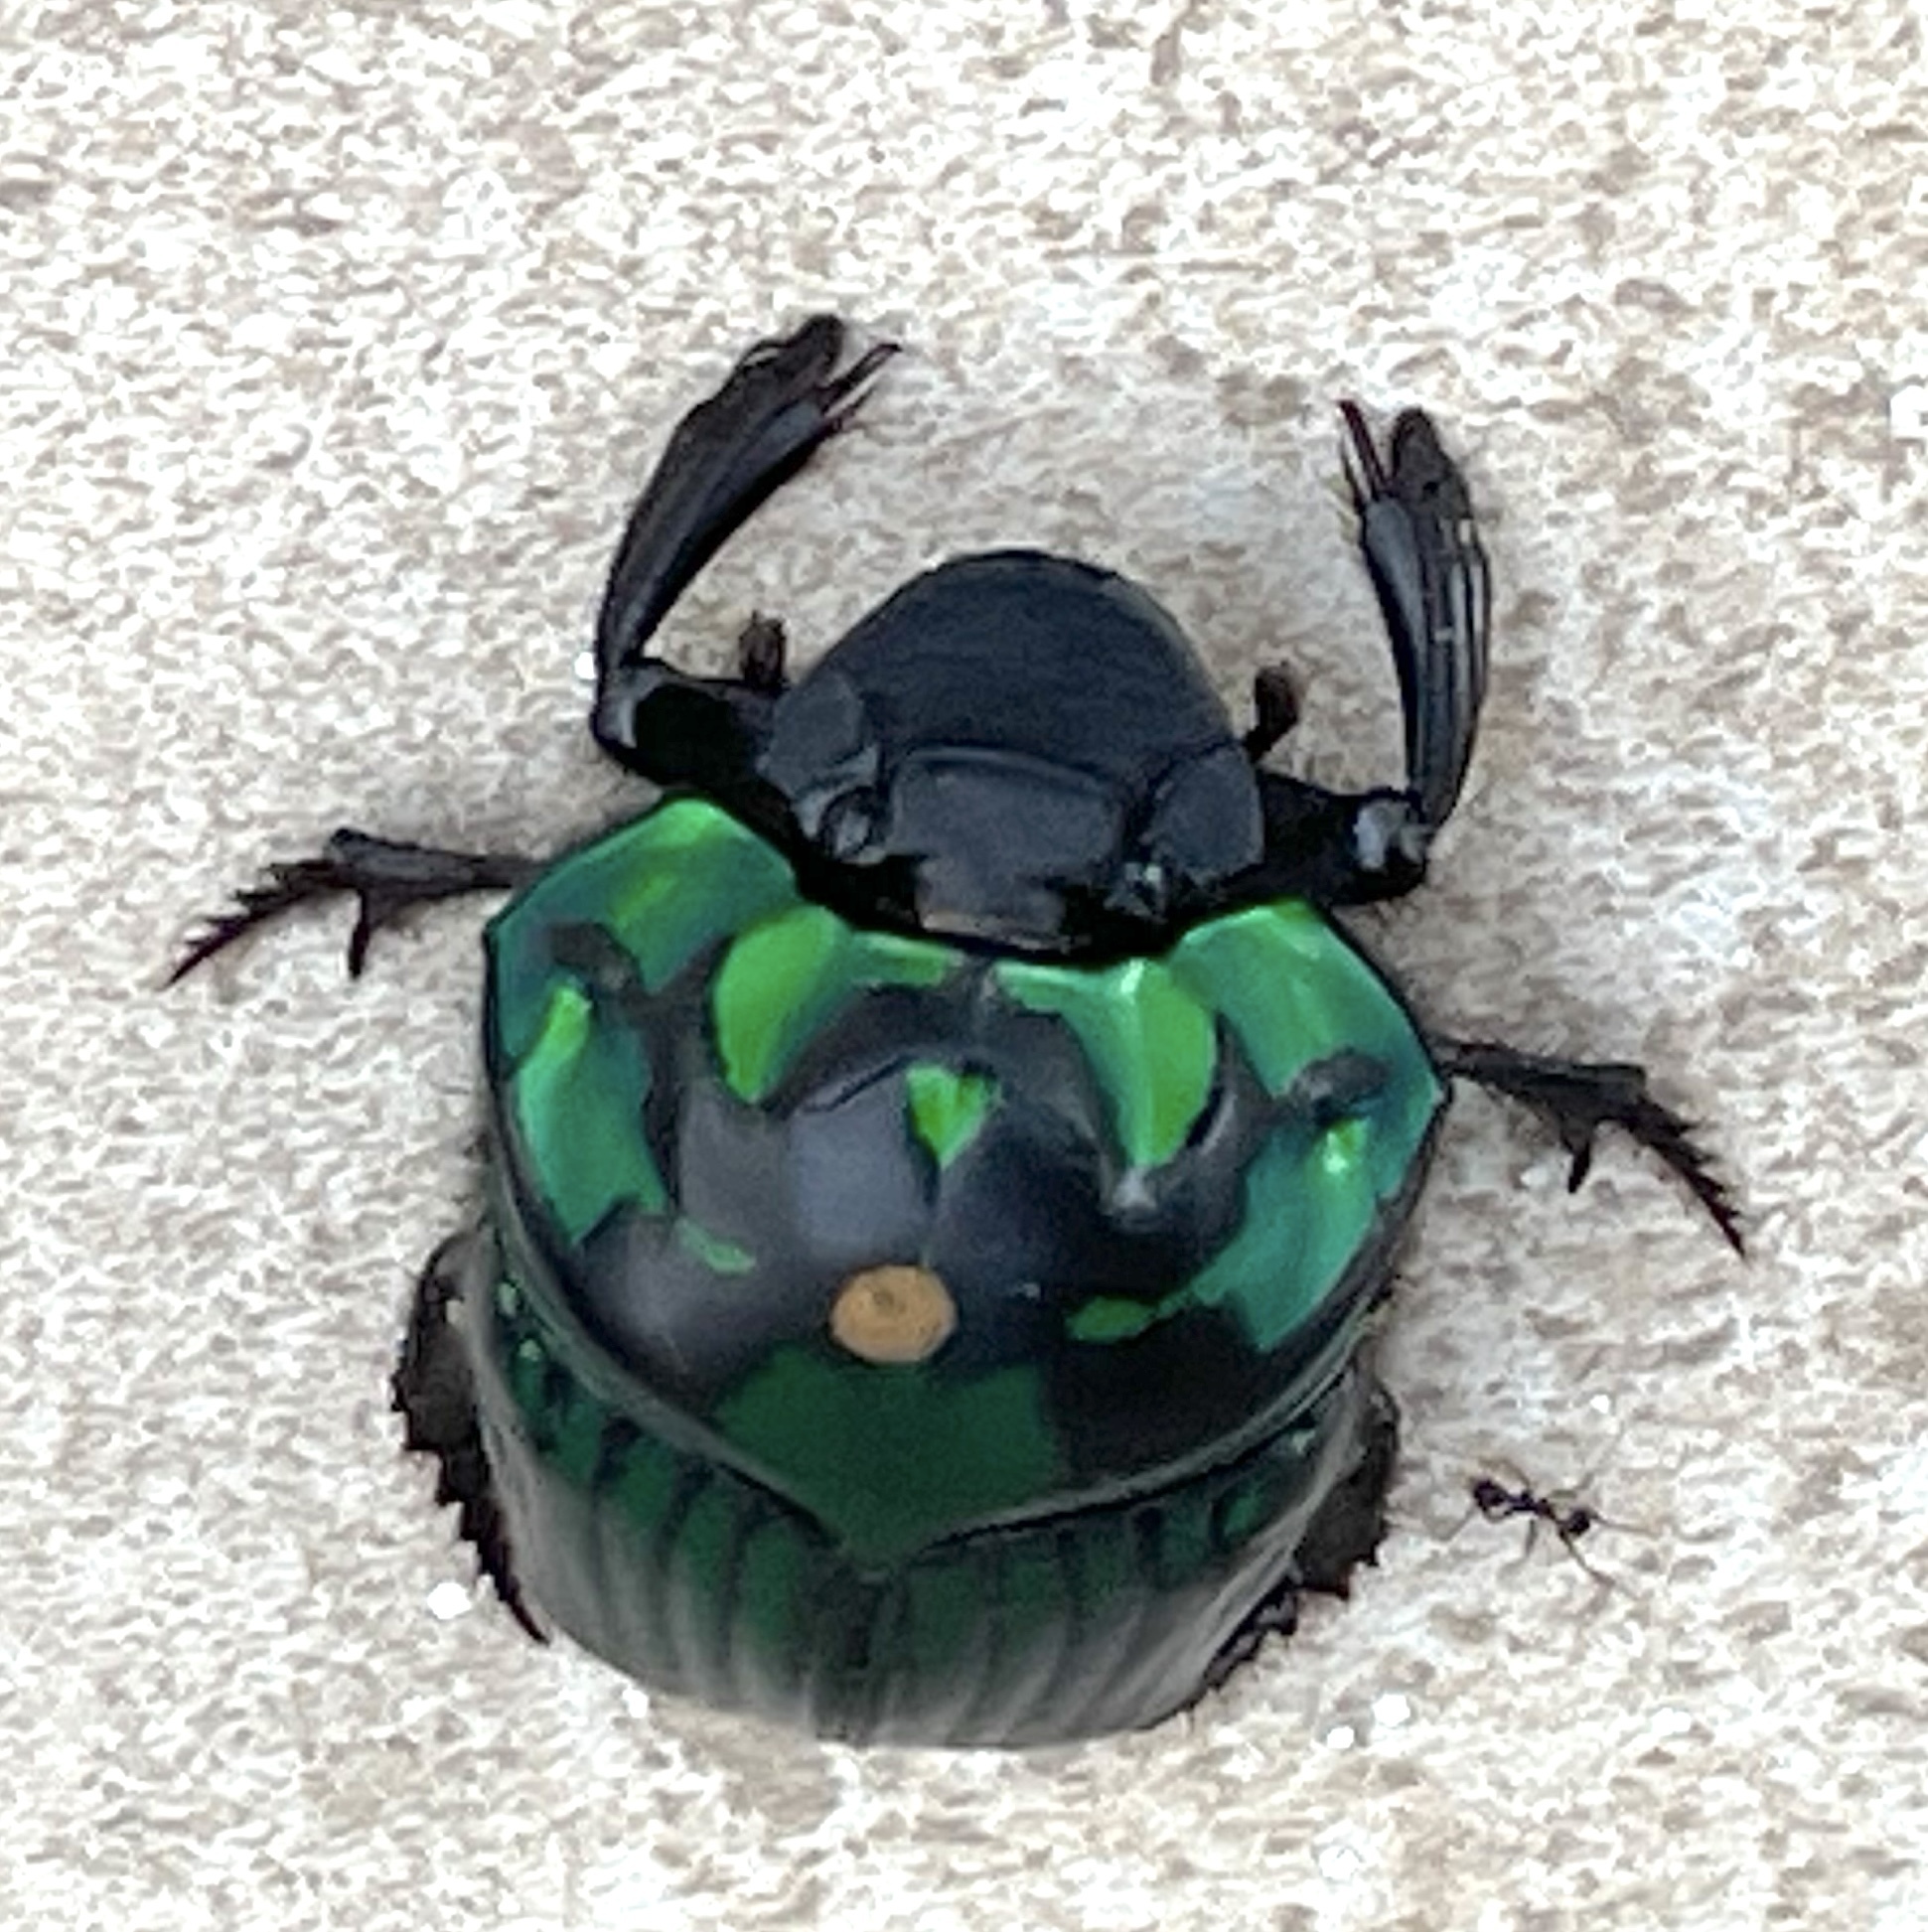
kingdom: Animalia
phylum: Arthropoda
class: Insecta
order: Coleoptera
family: Scarabaeidae
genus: Oxysternon
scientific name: Oxysternon conspicillatum
